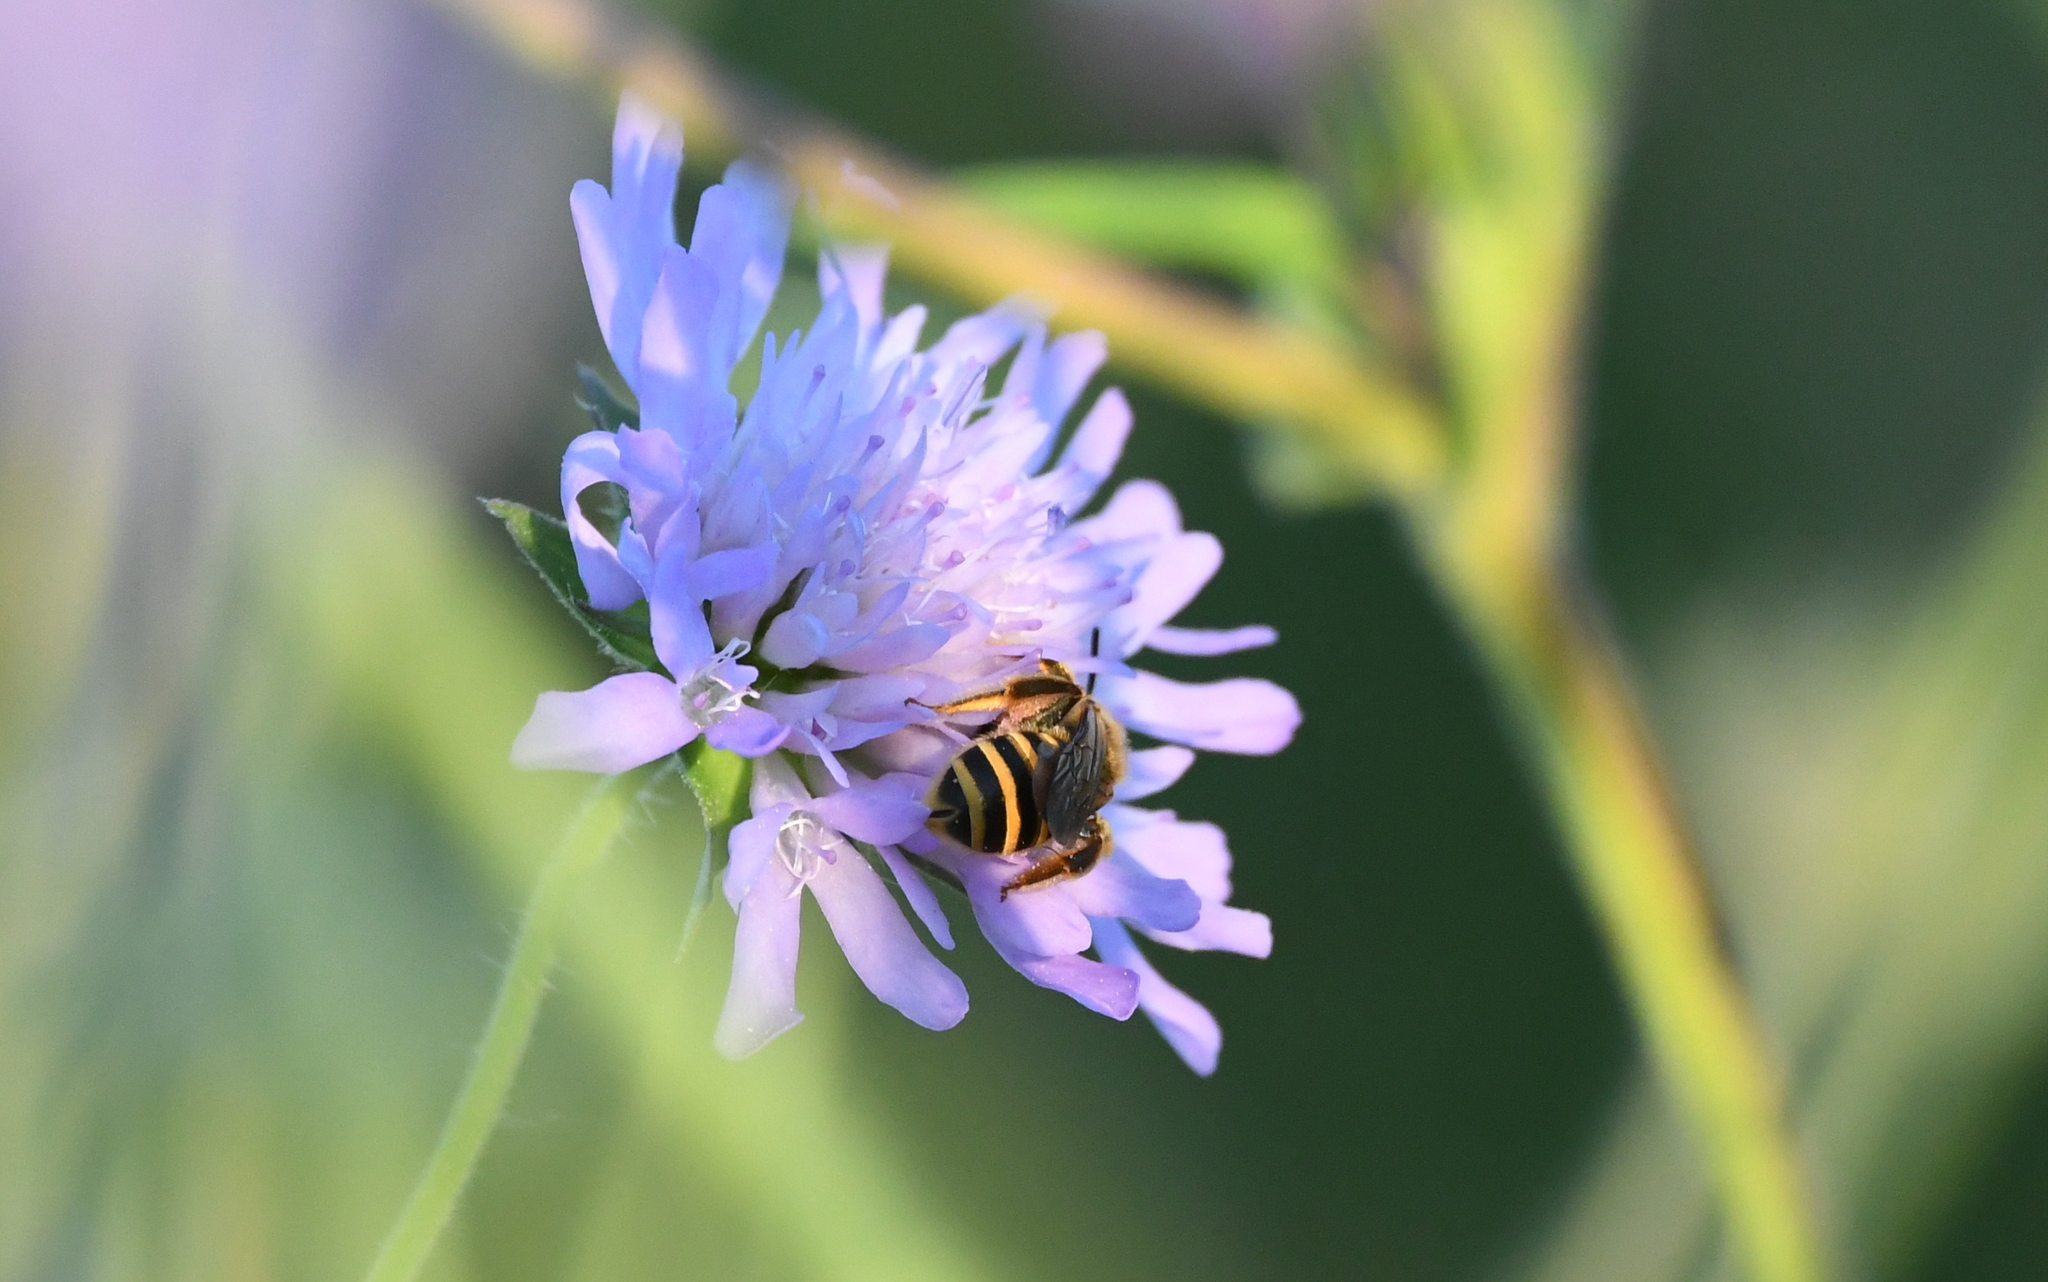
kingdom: Animalia
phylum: Arthropoda
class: Insecta
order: Hymenoptera
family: Halictidae
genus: Halictus
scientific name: Halictus scabiosae
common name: Great banded furrow bee
